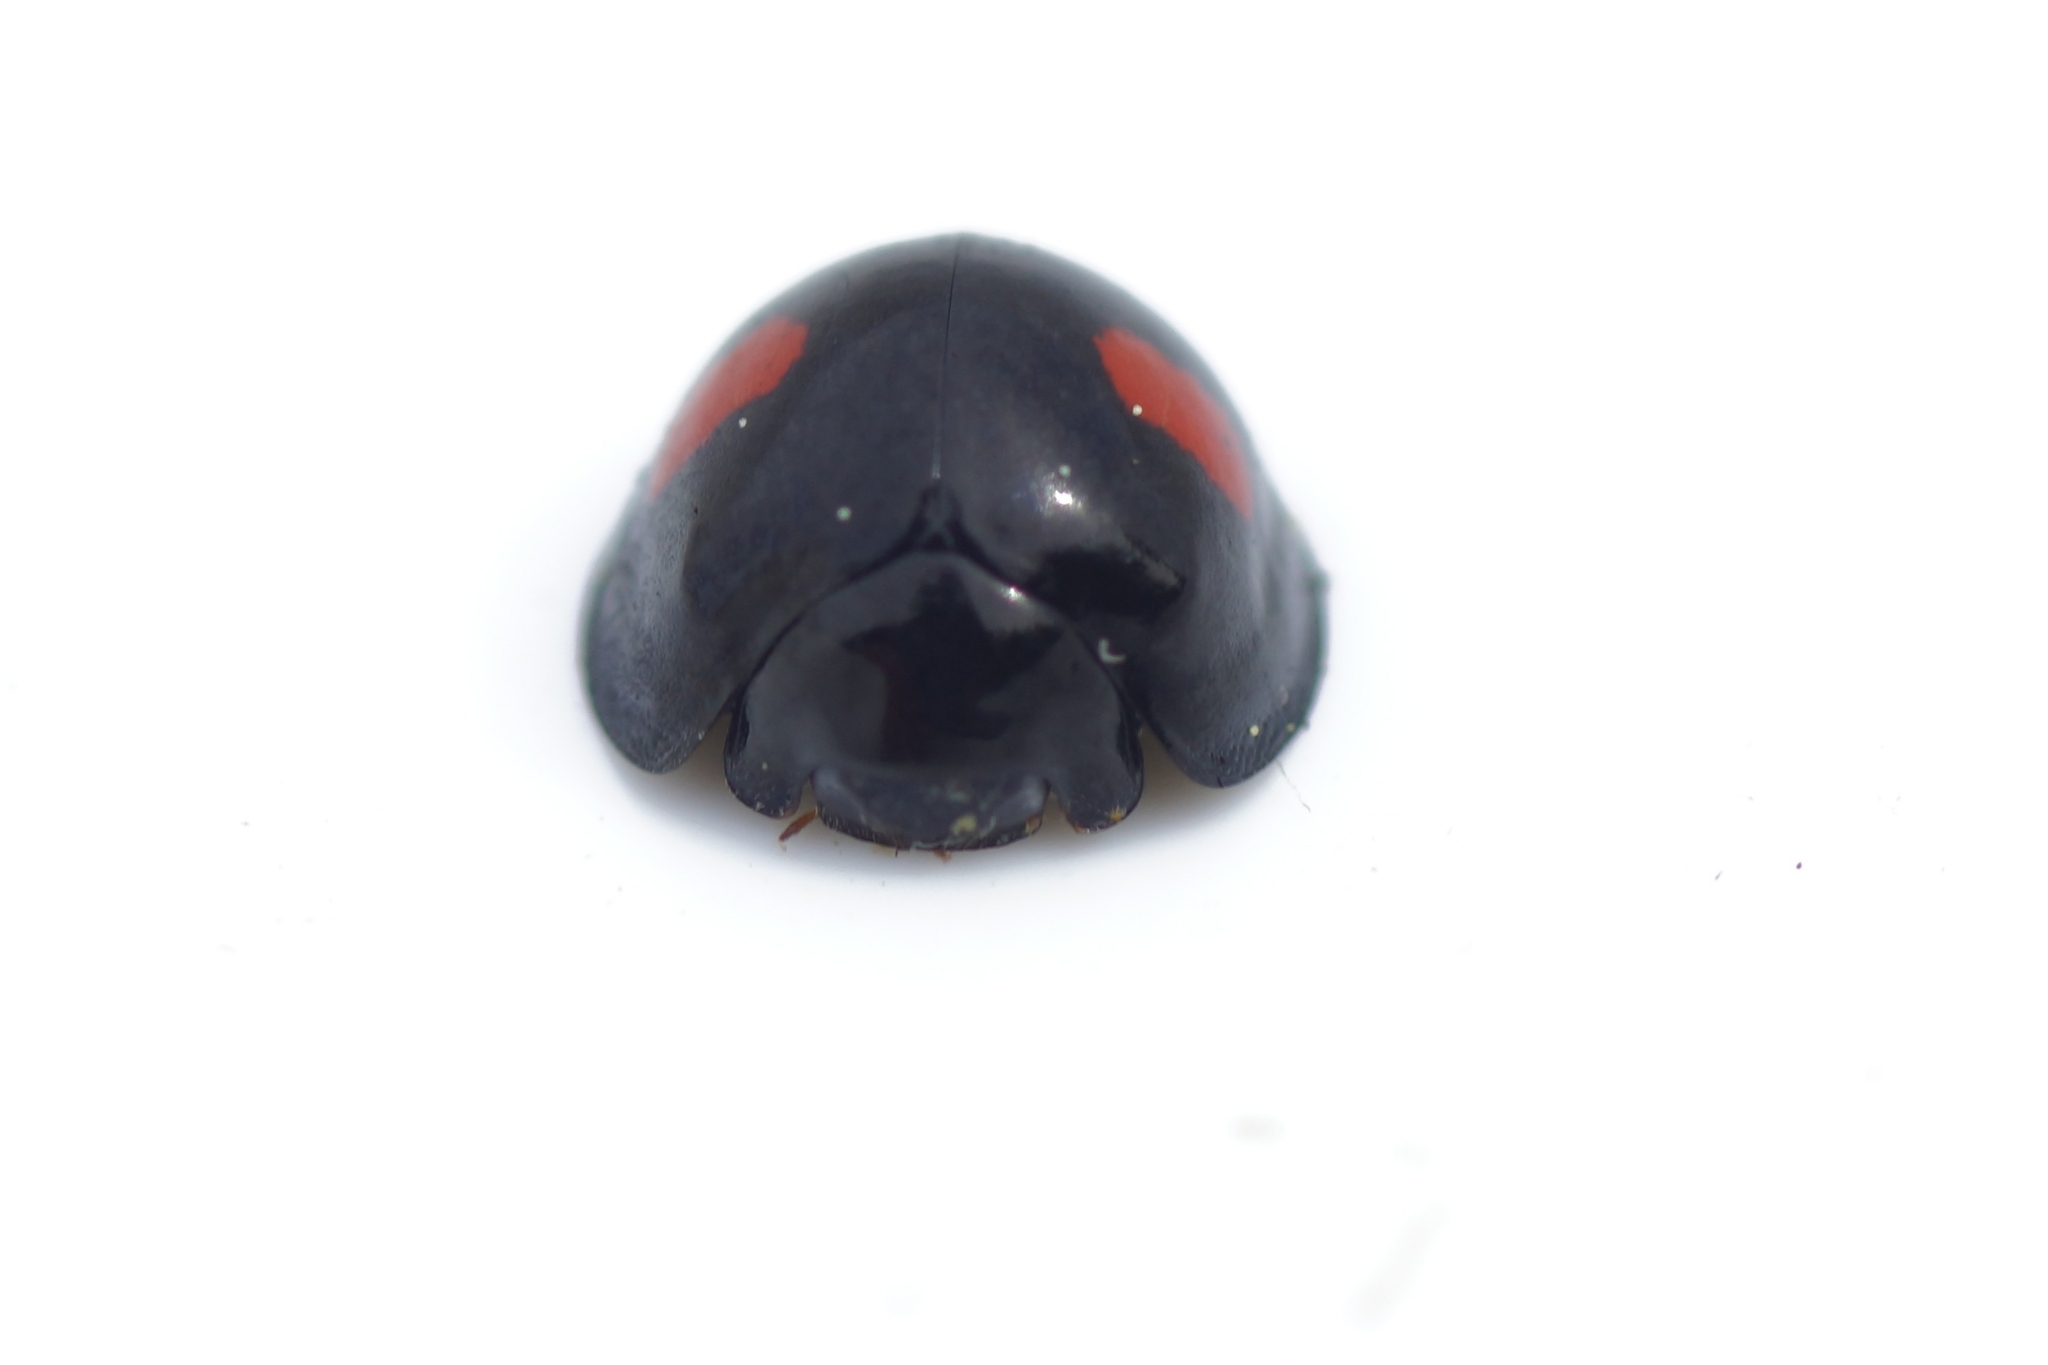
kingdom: Animalia
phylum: Arthropoda
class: Insecta
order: Coleoptera
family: Coccinellidae
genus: Chilocorus
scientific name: Chilocorus renipustulatus
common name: Kidney-spot ladybird
